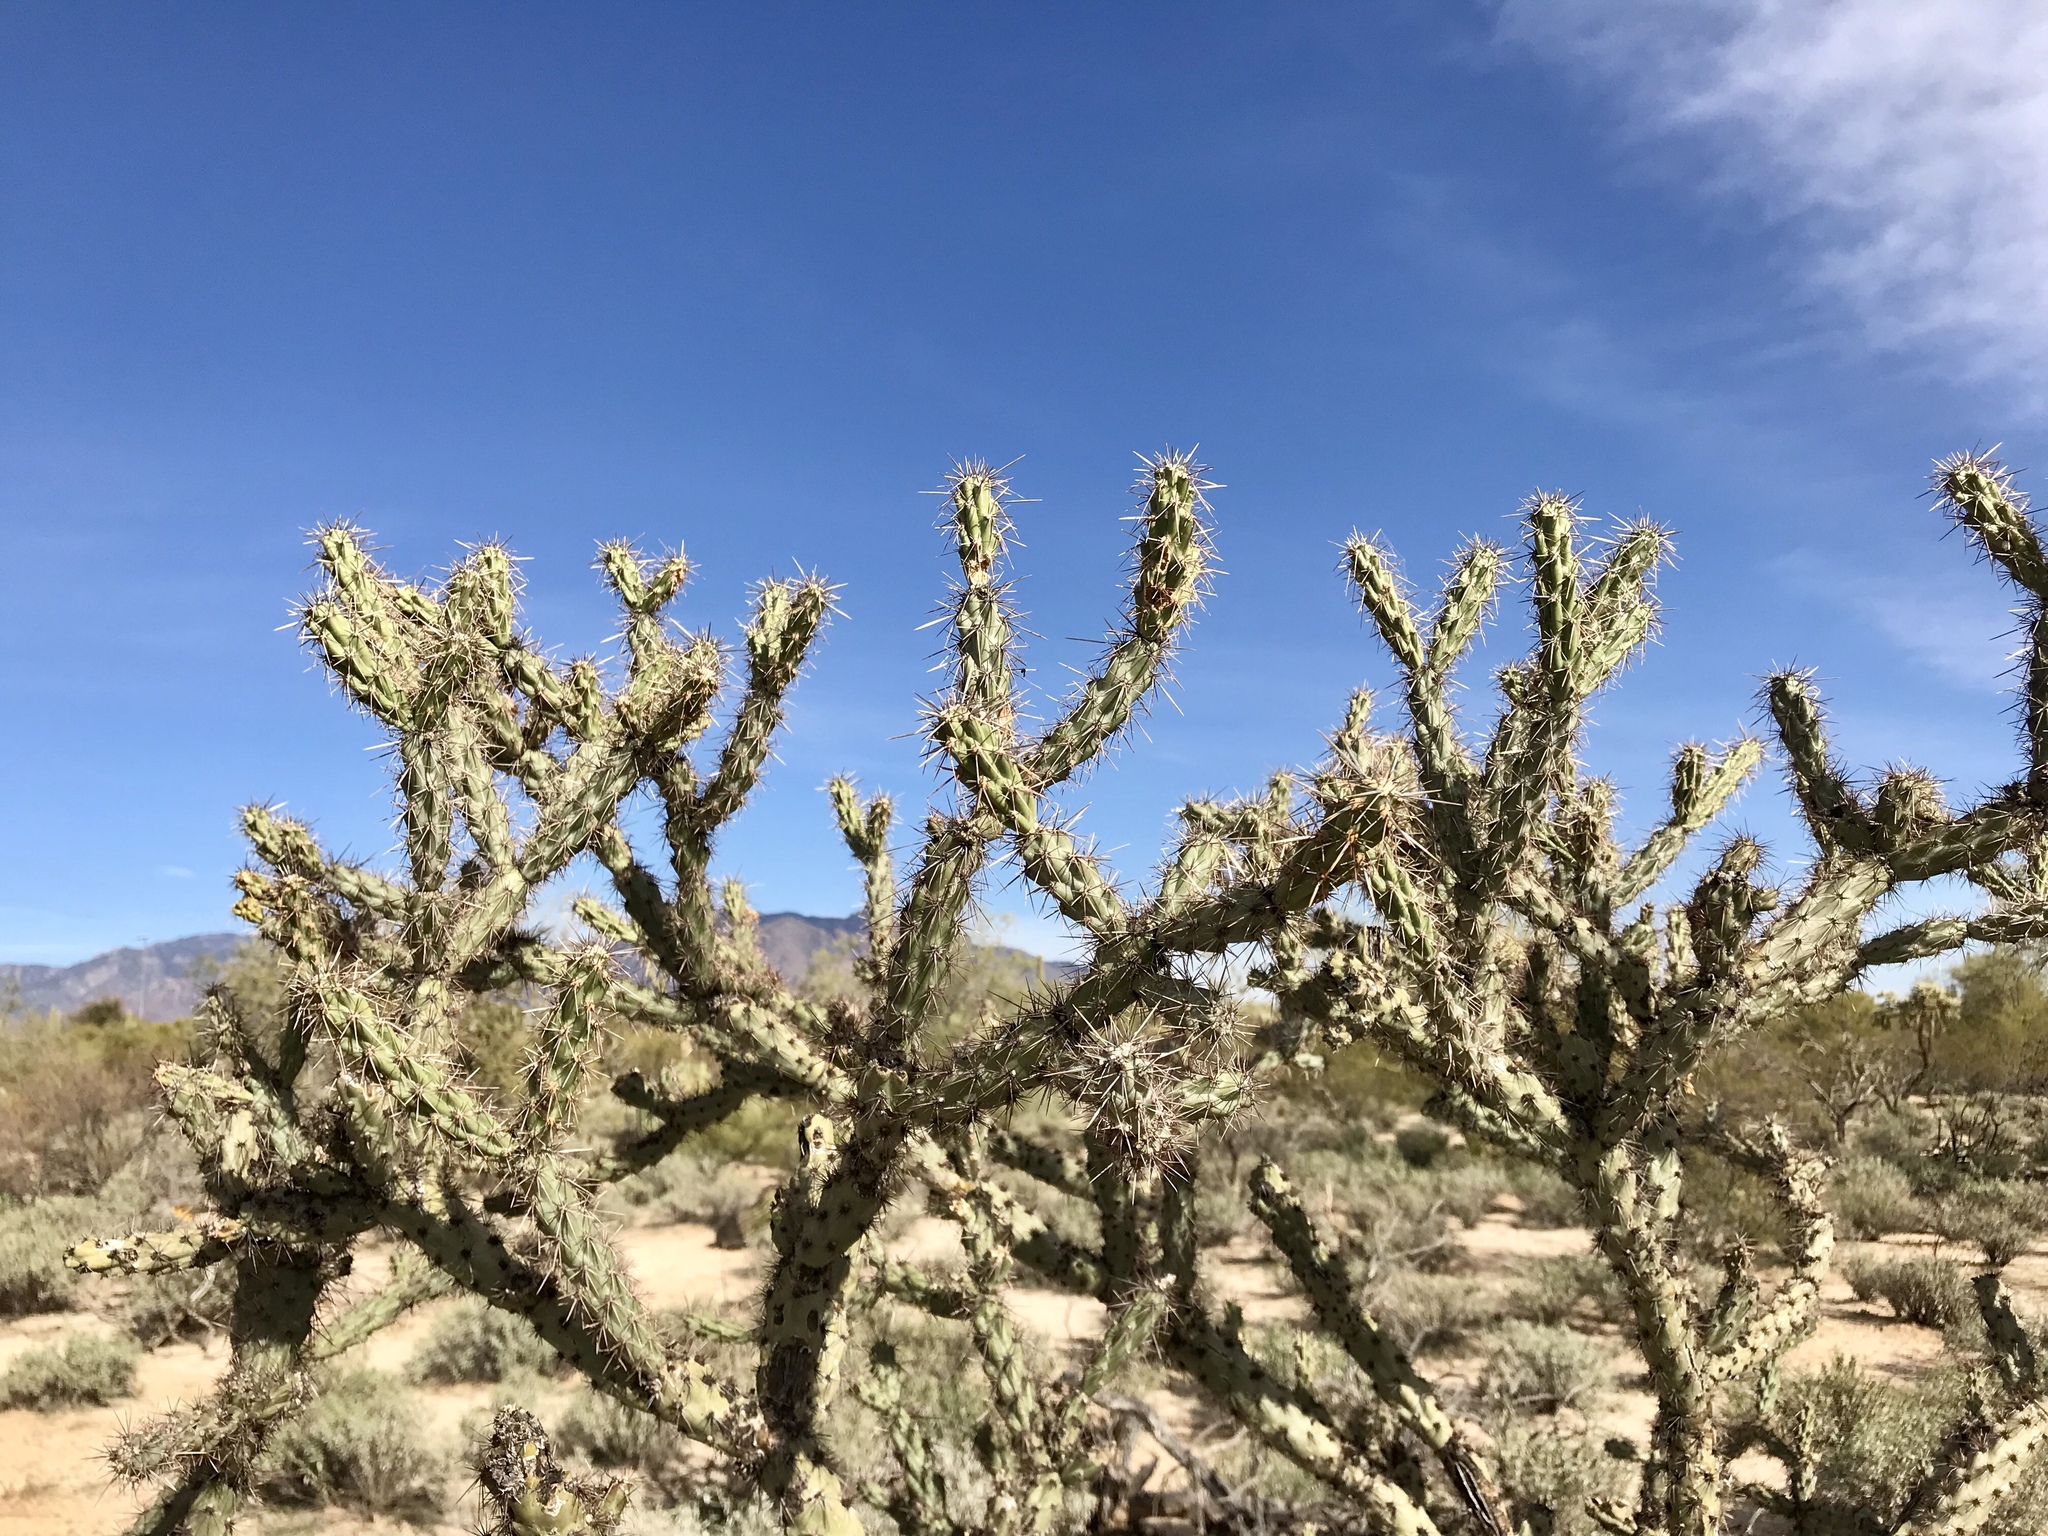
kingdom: Plantae
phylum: Tracheophyta
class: Magnoliopsida
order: Caryophyllales
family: Cactaceae
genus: Cylindropuntia
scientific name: Cylindropuntia acanthocarpa
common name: Buckhorn cholla
